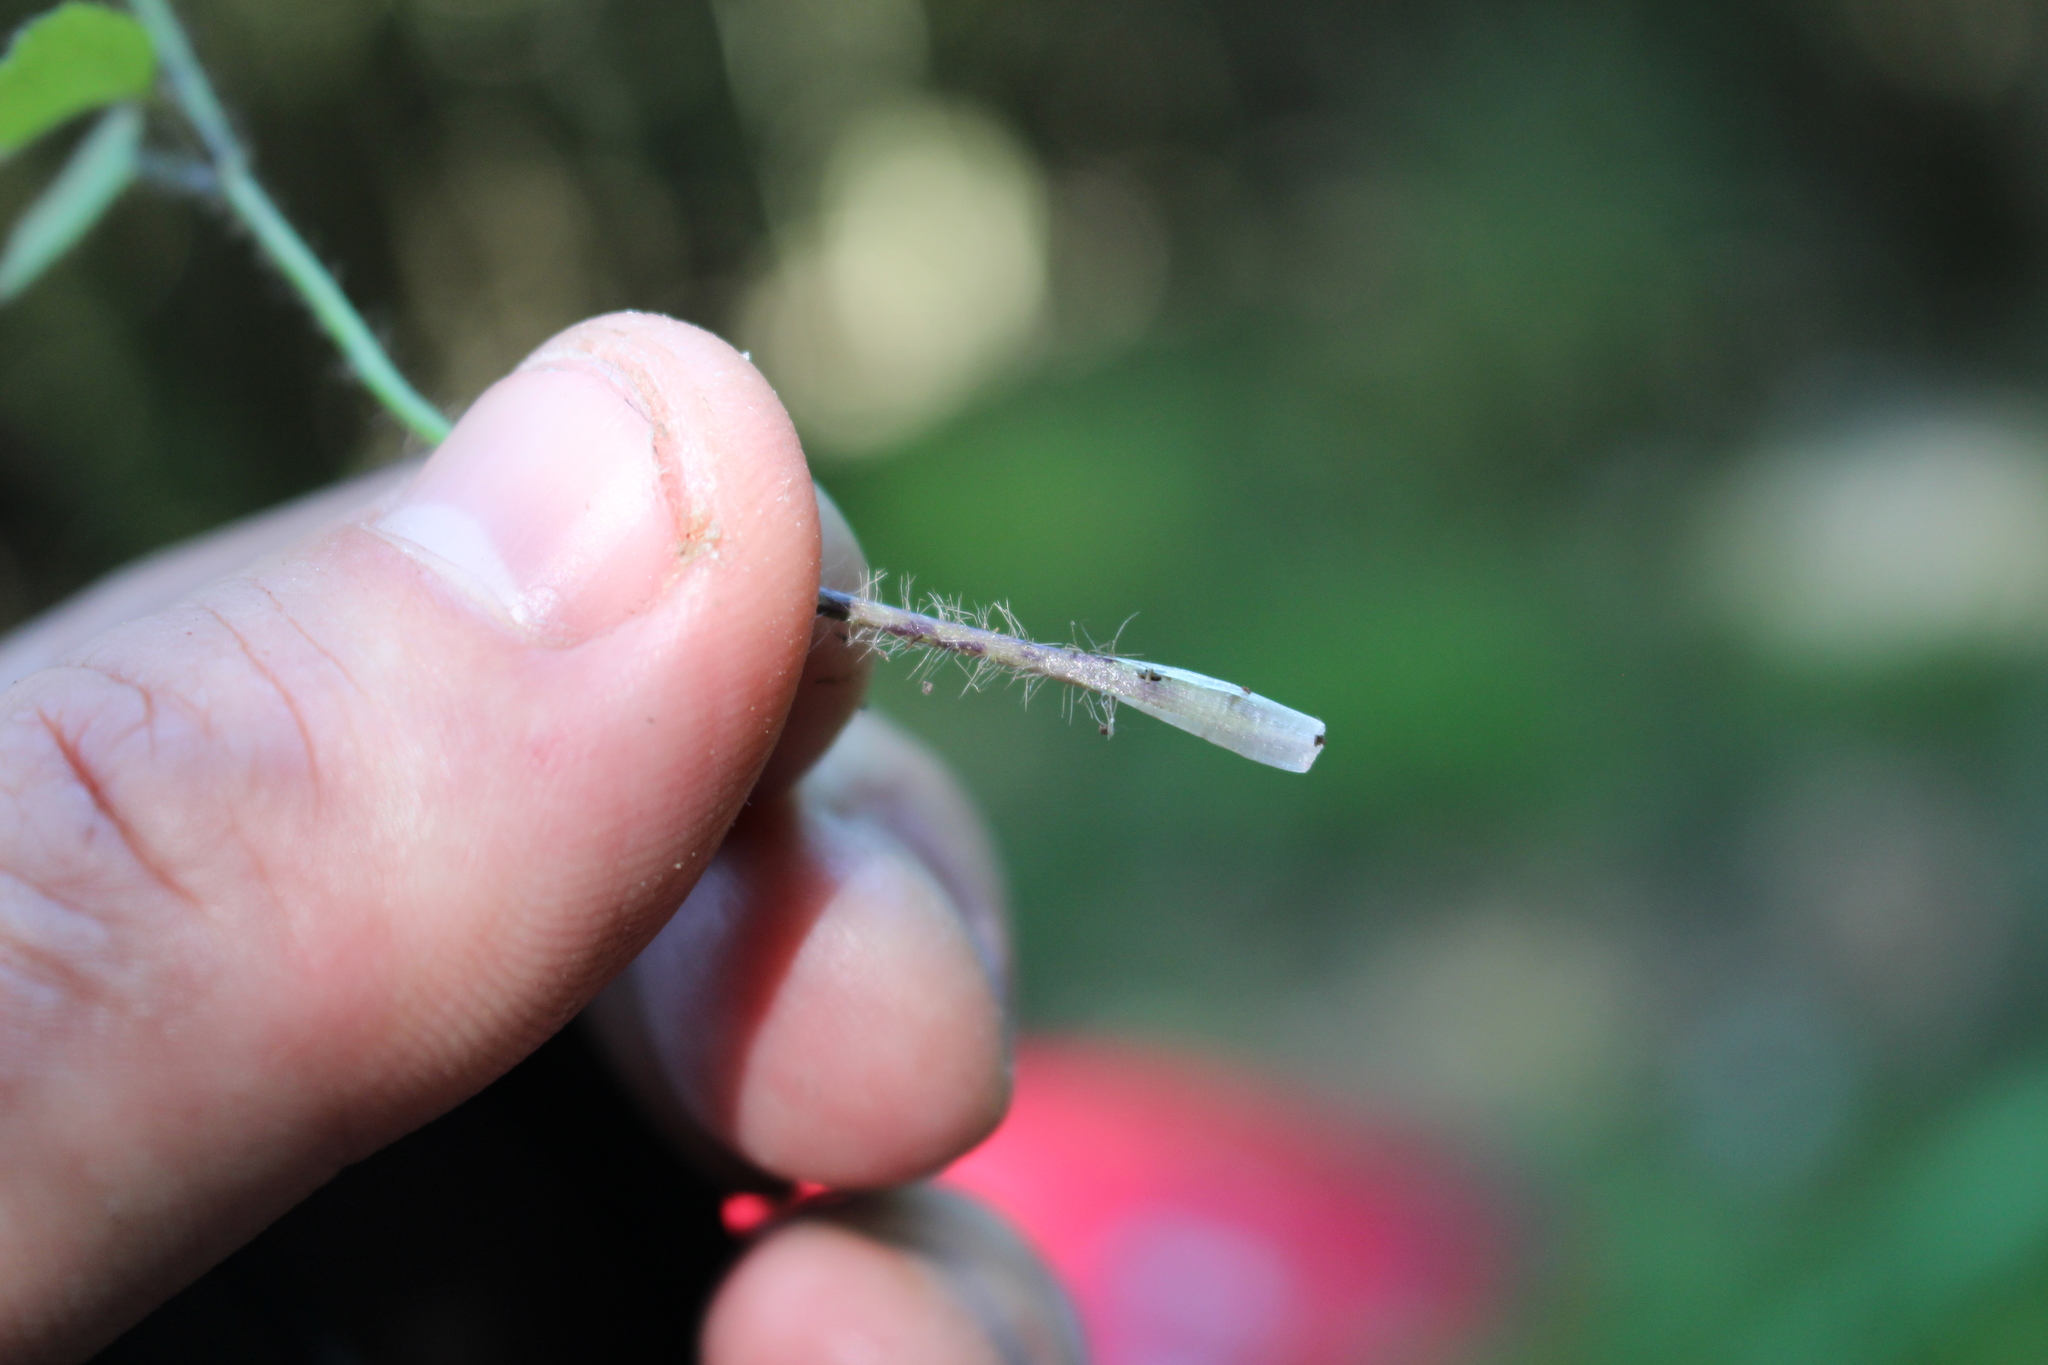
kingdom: Plantae
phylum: Tracheophyta
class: Magnoliopsida
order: Ranunculales
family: Ranunculaceae
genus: Ranunculus
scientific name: Ranunculus reflexus
